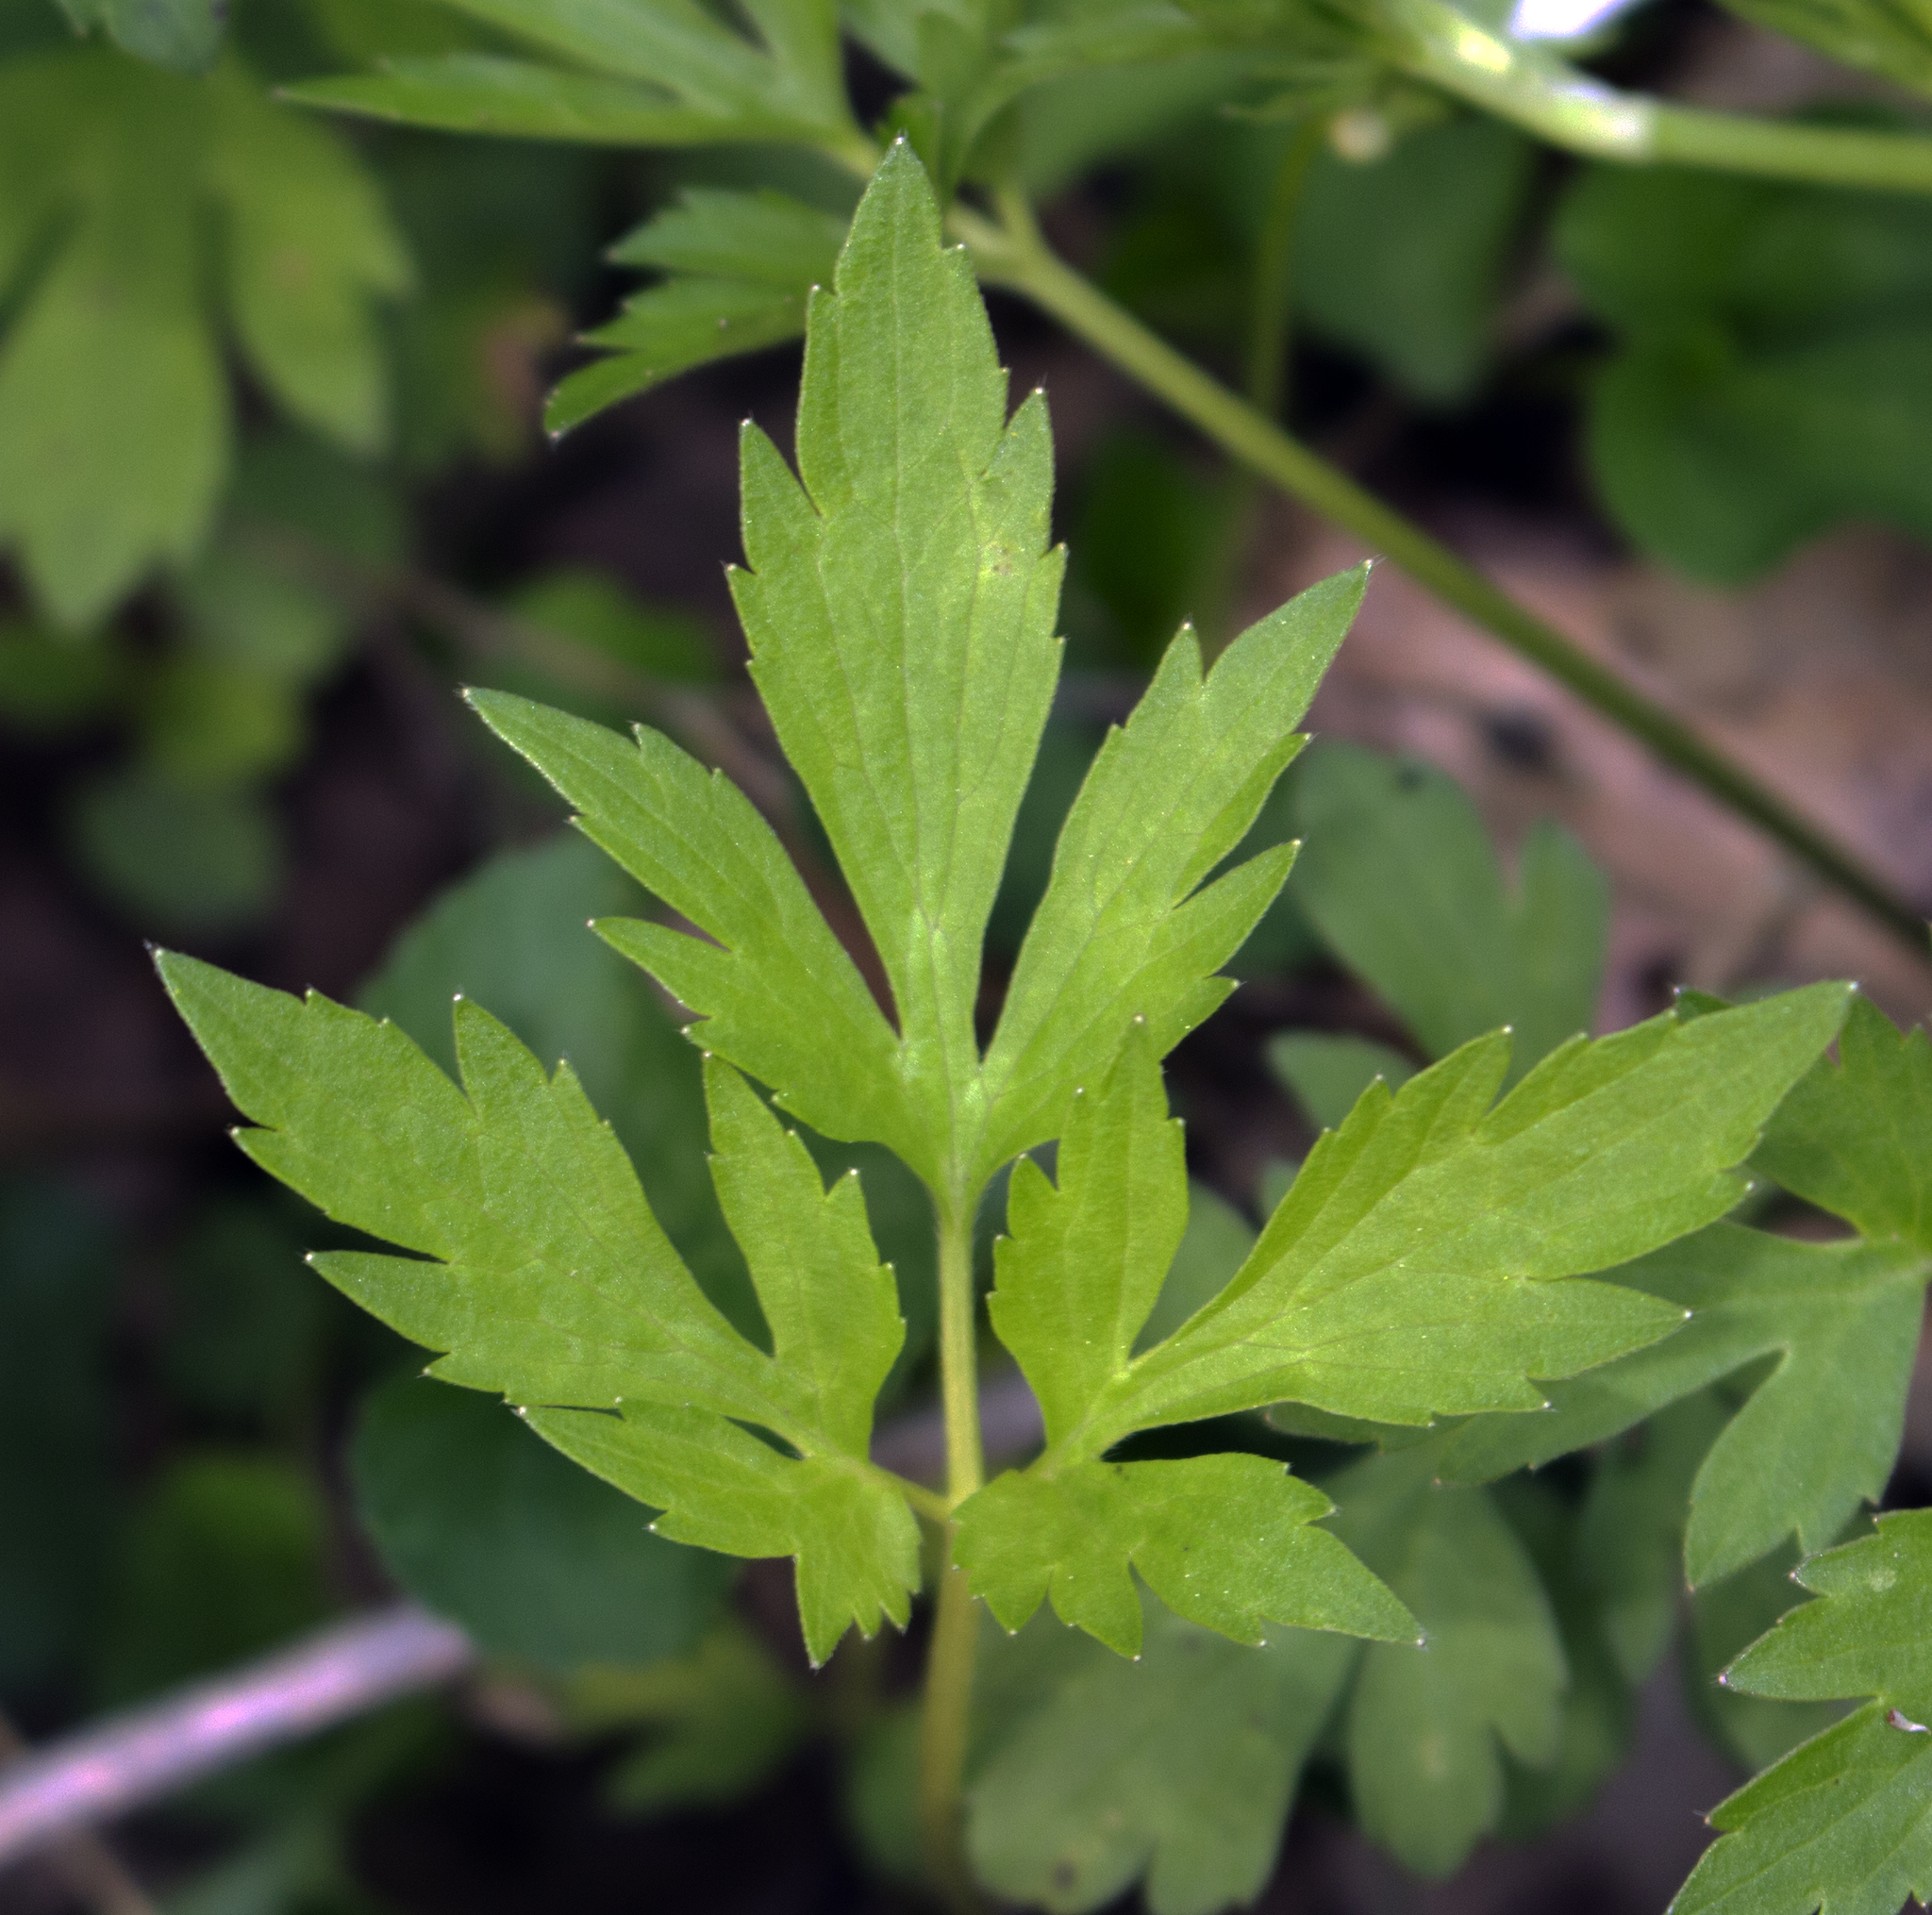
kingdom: Plantae
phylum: Tracheophyta
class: Magnoliopsida
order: Ranunculales
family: Ranunculaceae
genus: Ranunculus
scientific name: Ranunculus hispidus
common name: Bristly buttercup
